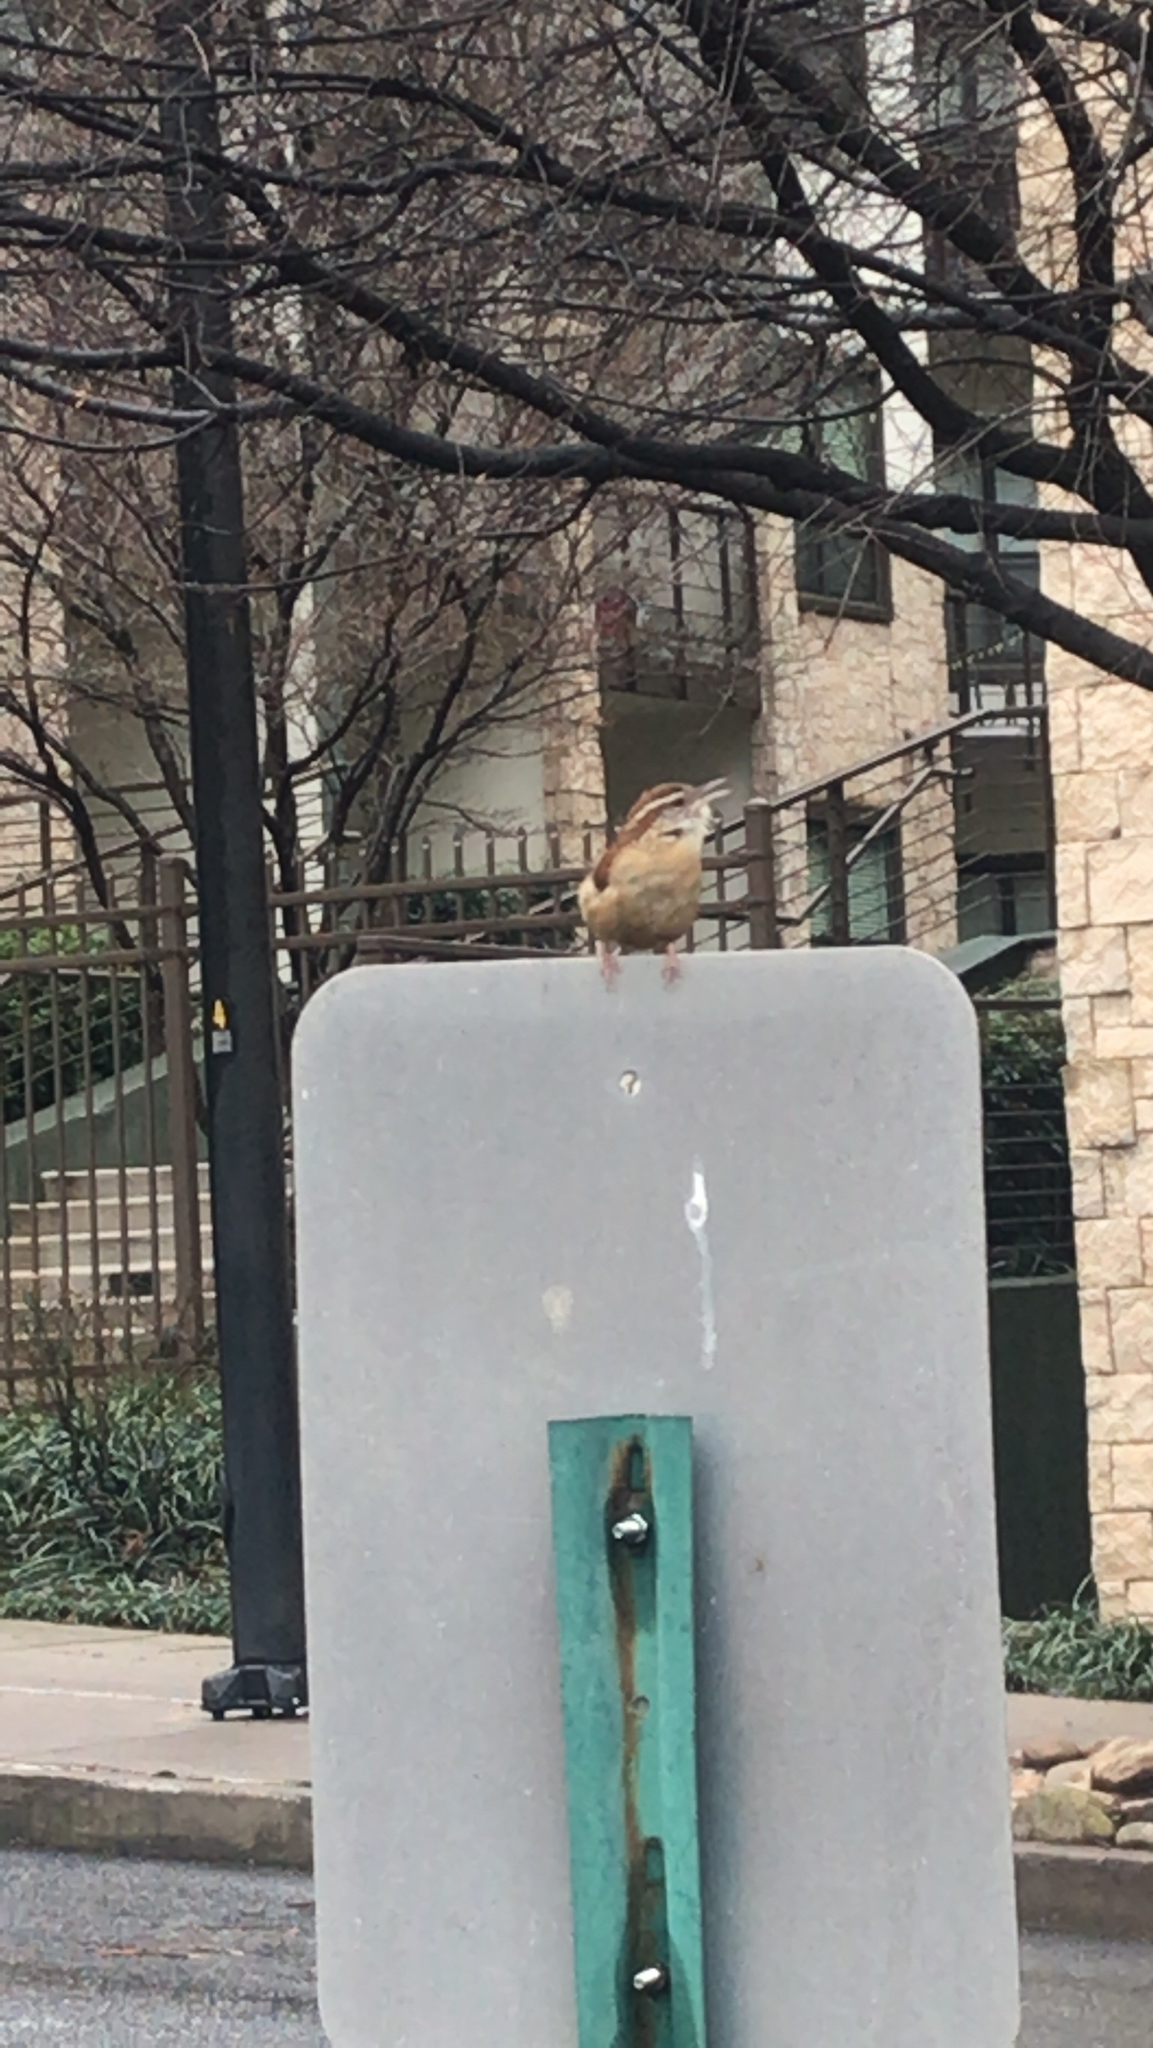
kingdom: Animalia
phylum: Chordata
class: Aves
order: Passeriformes
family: Troglodytidae
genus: Thryothorus
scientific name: Thryothorus ludovicianus
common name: Carolina wren
